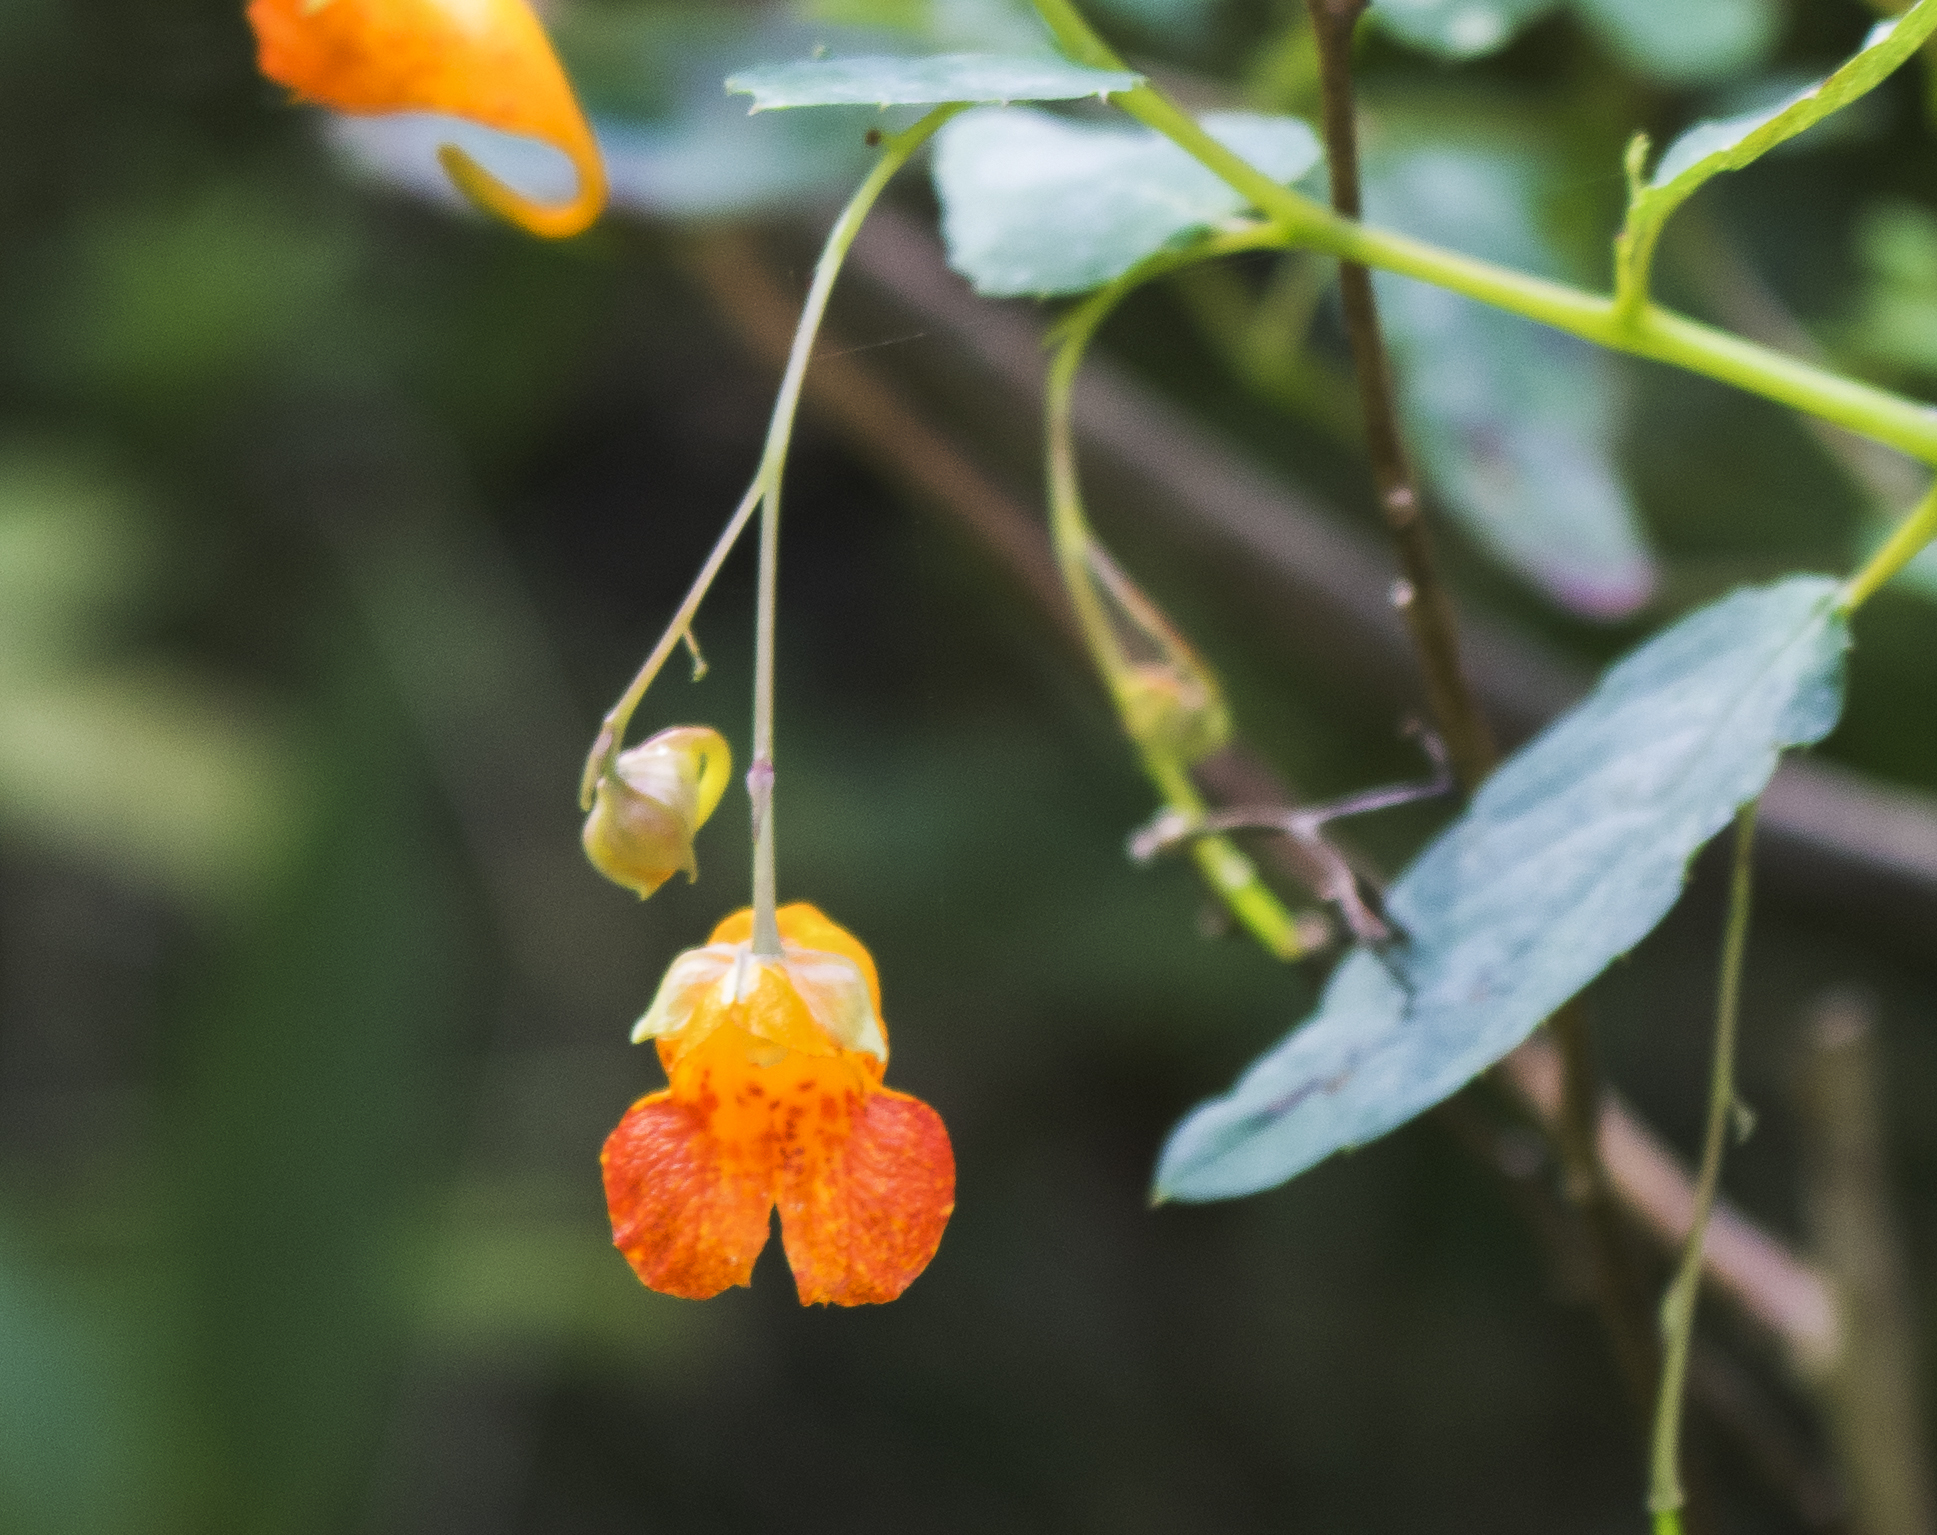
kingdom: Plantae
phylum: Tracheophyta
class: Magnoliopsida
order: Ericales
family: Balsaminaceae
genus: Impatiens
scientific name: Impatiens capensis
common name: Orange balsam
